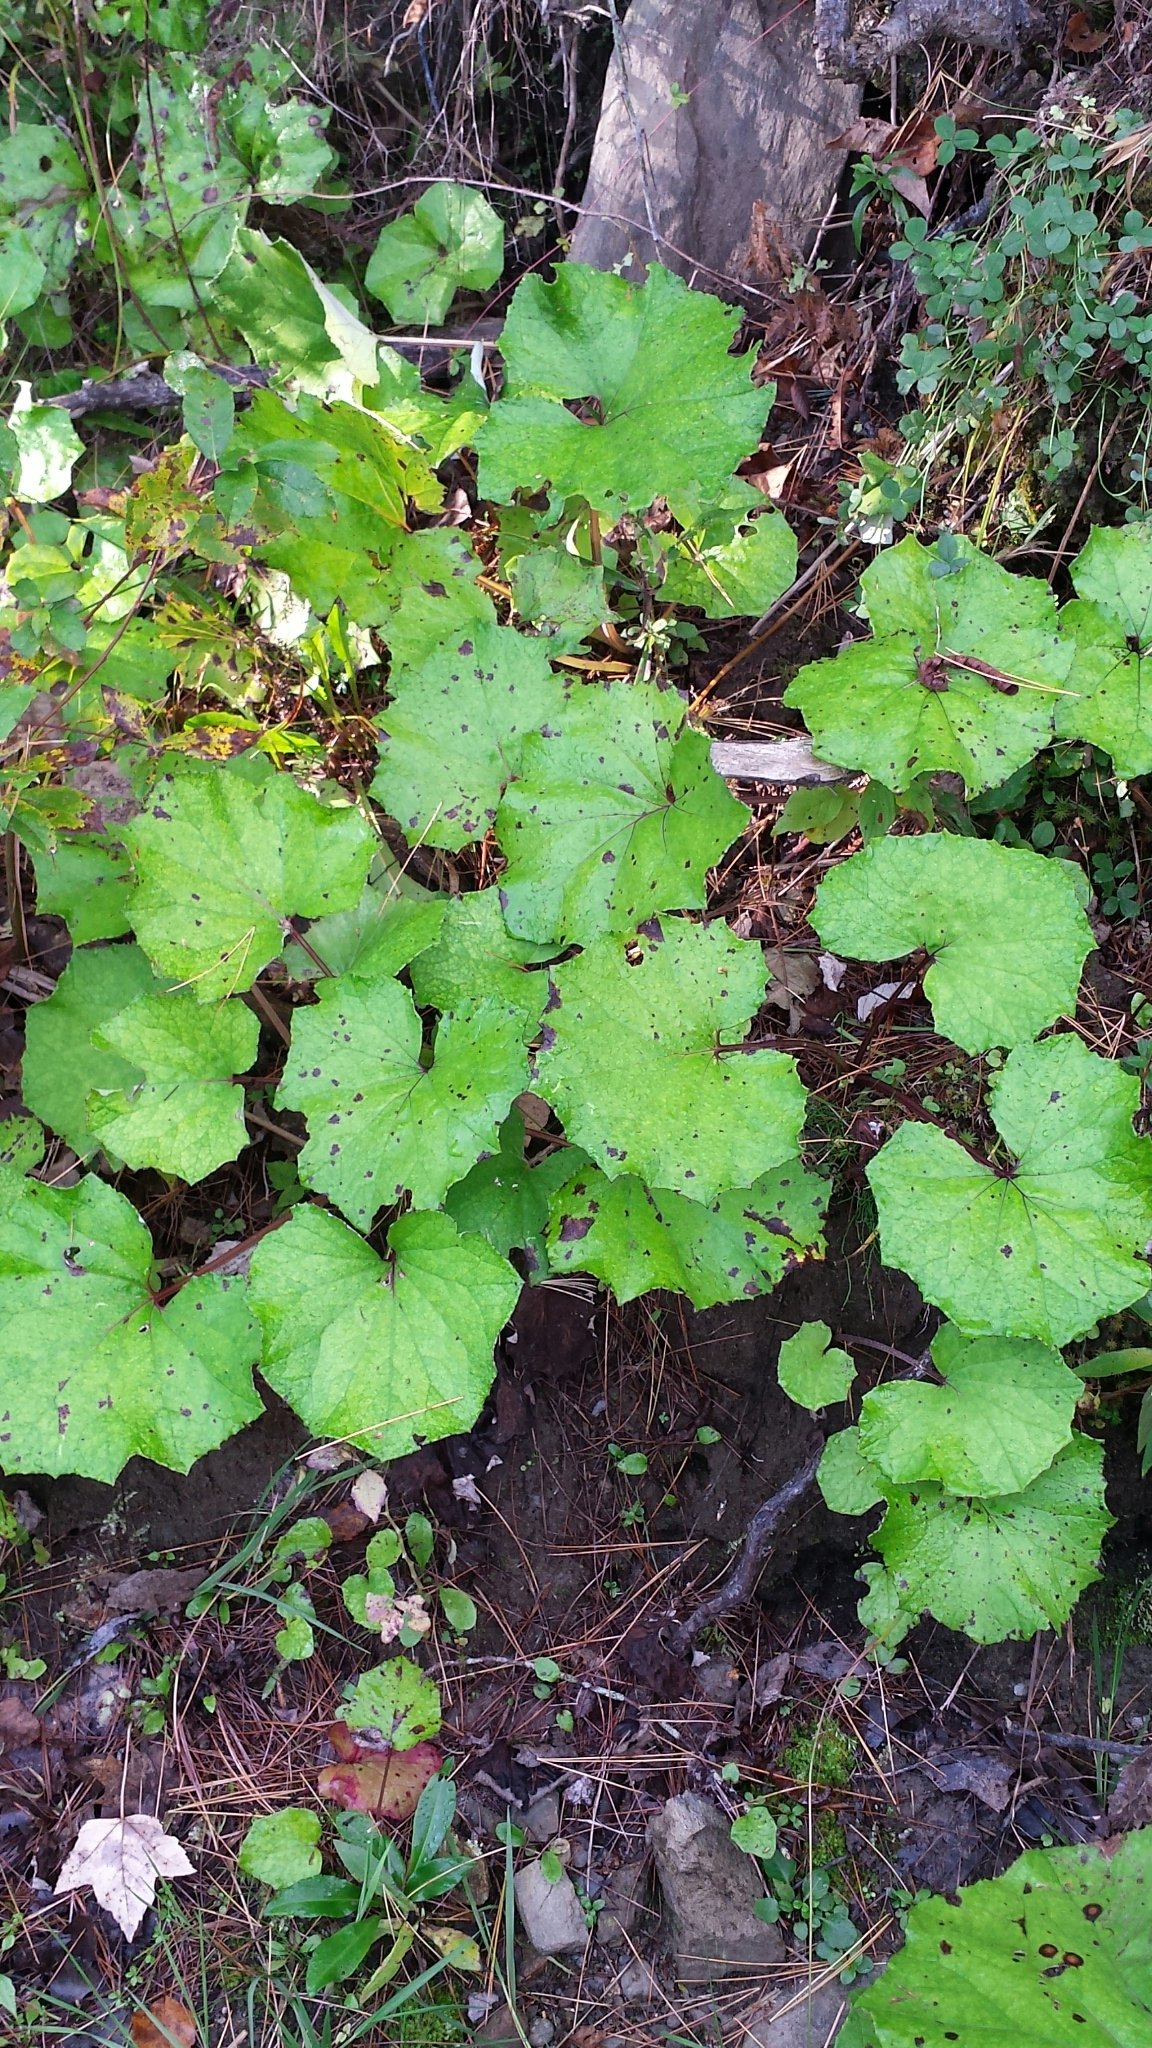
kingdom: Plantae
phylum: Tracheophyta
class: Magnoliopsida
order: Asterales
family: Asteraceae
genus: Tussilago
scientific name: Tussilago farfara
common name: Coltsfoot
